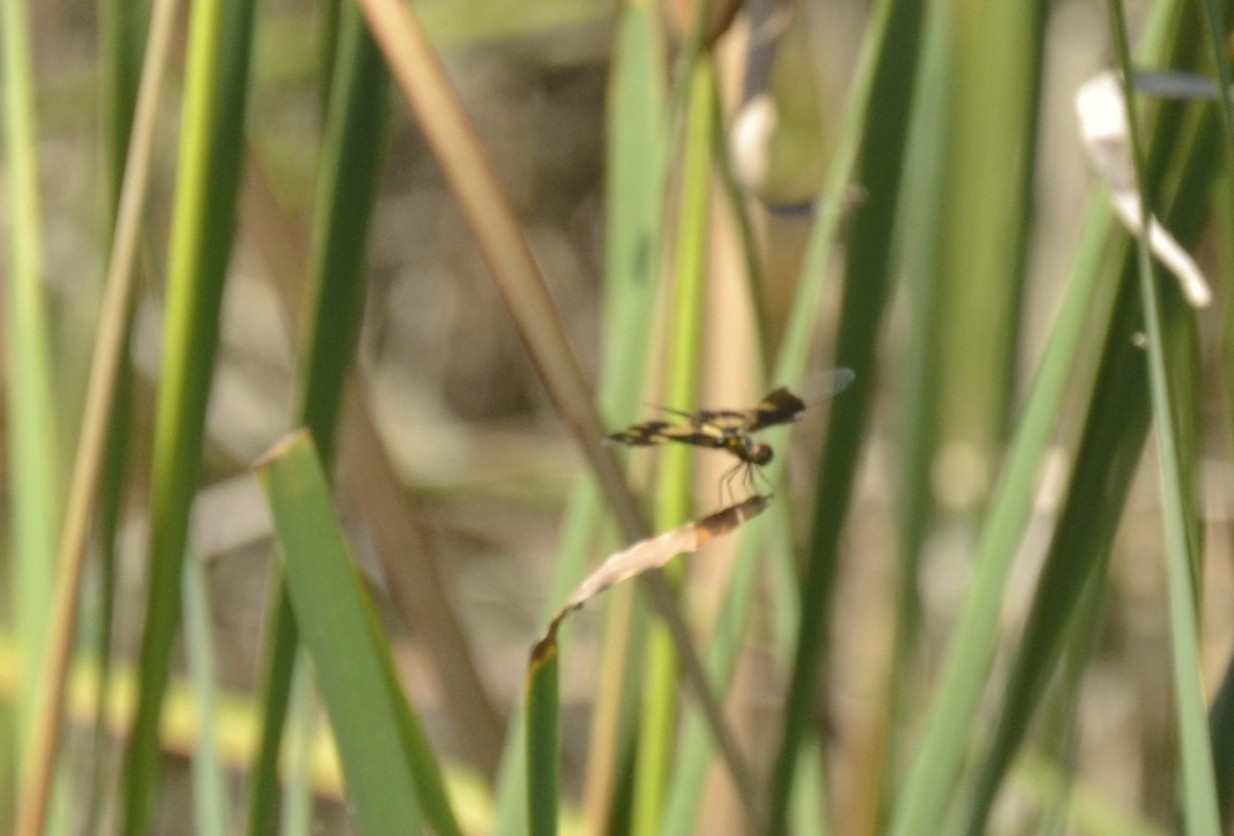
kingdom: Animalia
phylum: Arthropoda
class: Insecta
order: Odonata
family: Libellulidae
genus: Rhyothemis
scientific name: Rhyothemis variegata
